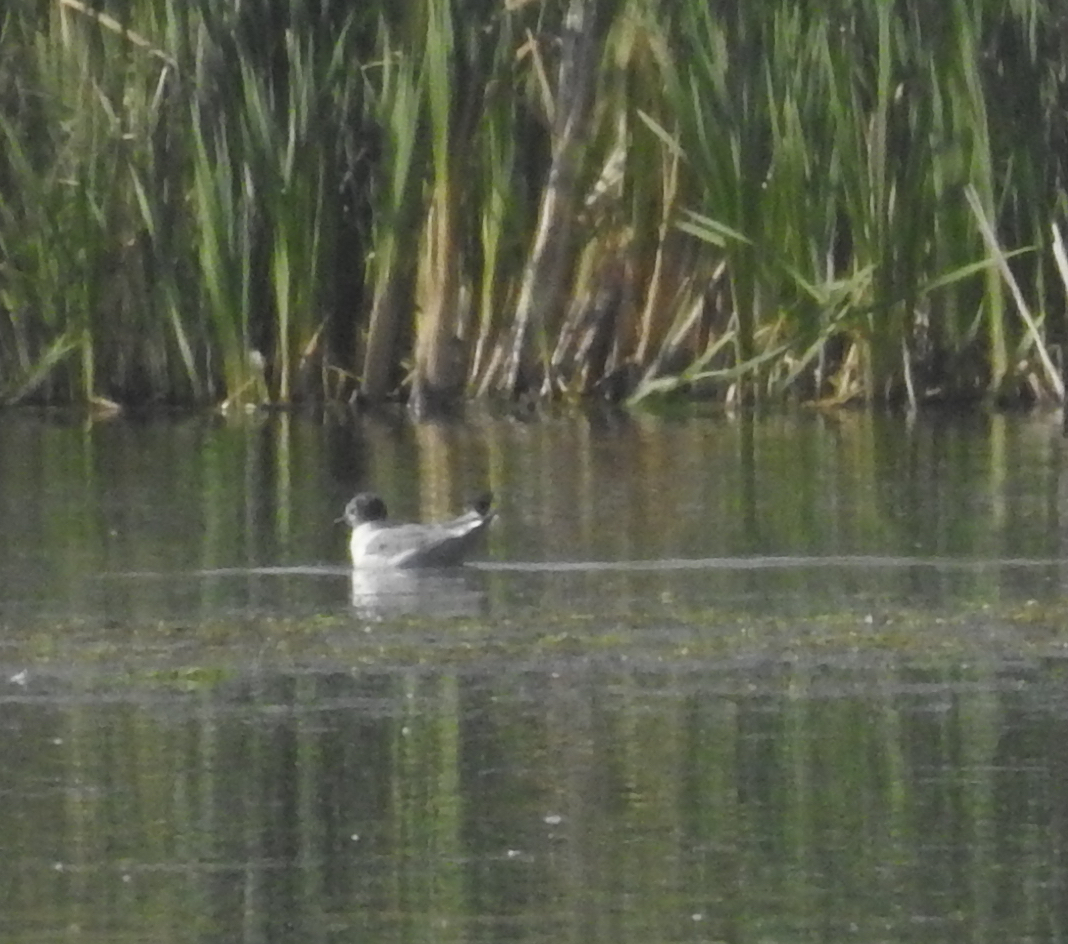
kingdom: Animalia
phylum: Chordata
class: Aves
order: Charadriiformes
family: Laridae
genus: Leucophaeus
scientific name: Leucophaeus pipixcan
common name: Franklin's gull
